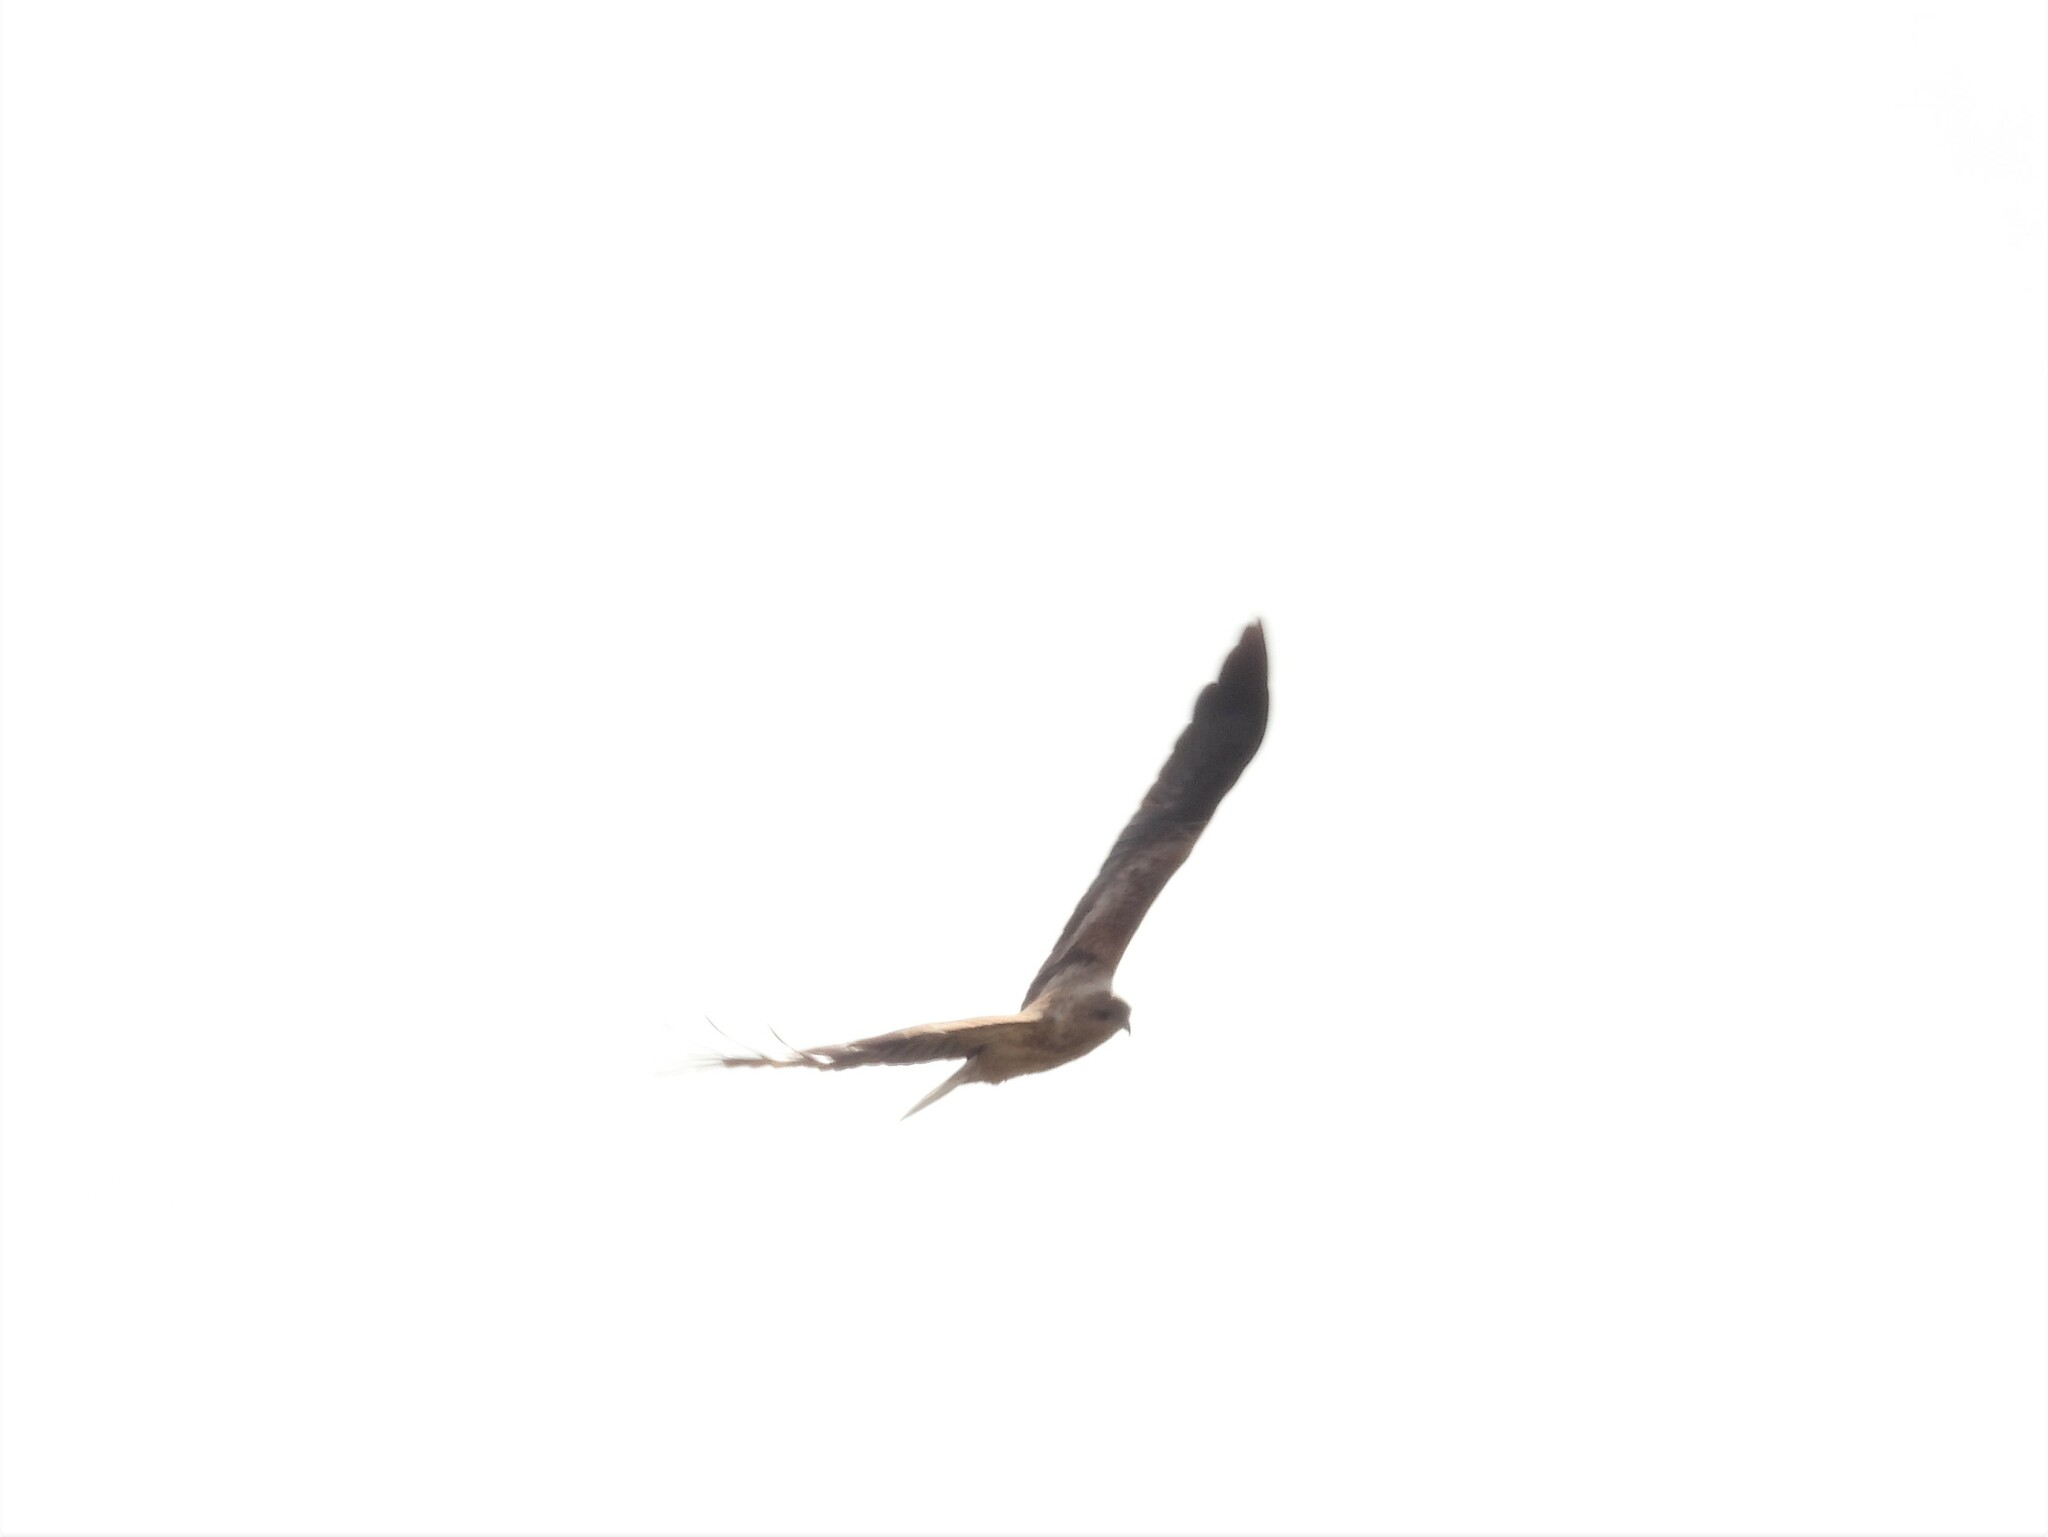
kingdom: Animalia
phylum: Chordata
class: Aves
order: Accipitriformes
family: Accipitridae
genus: Haliastur
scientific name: Haliastur sphenurus
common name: Whistling kite
